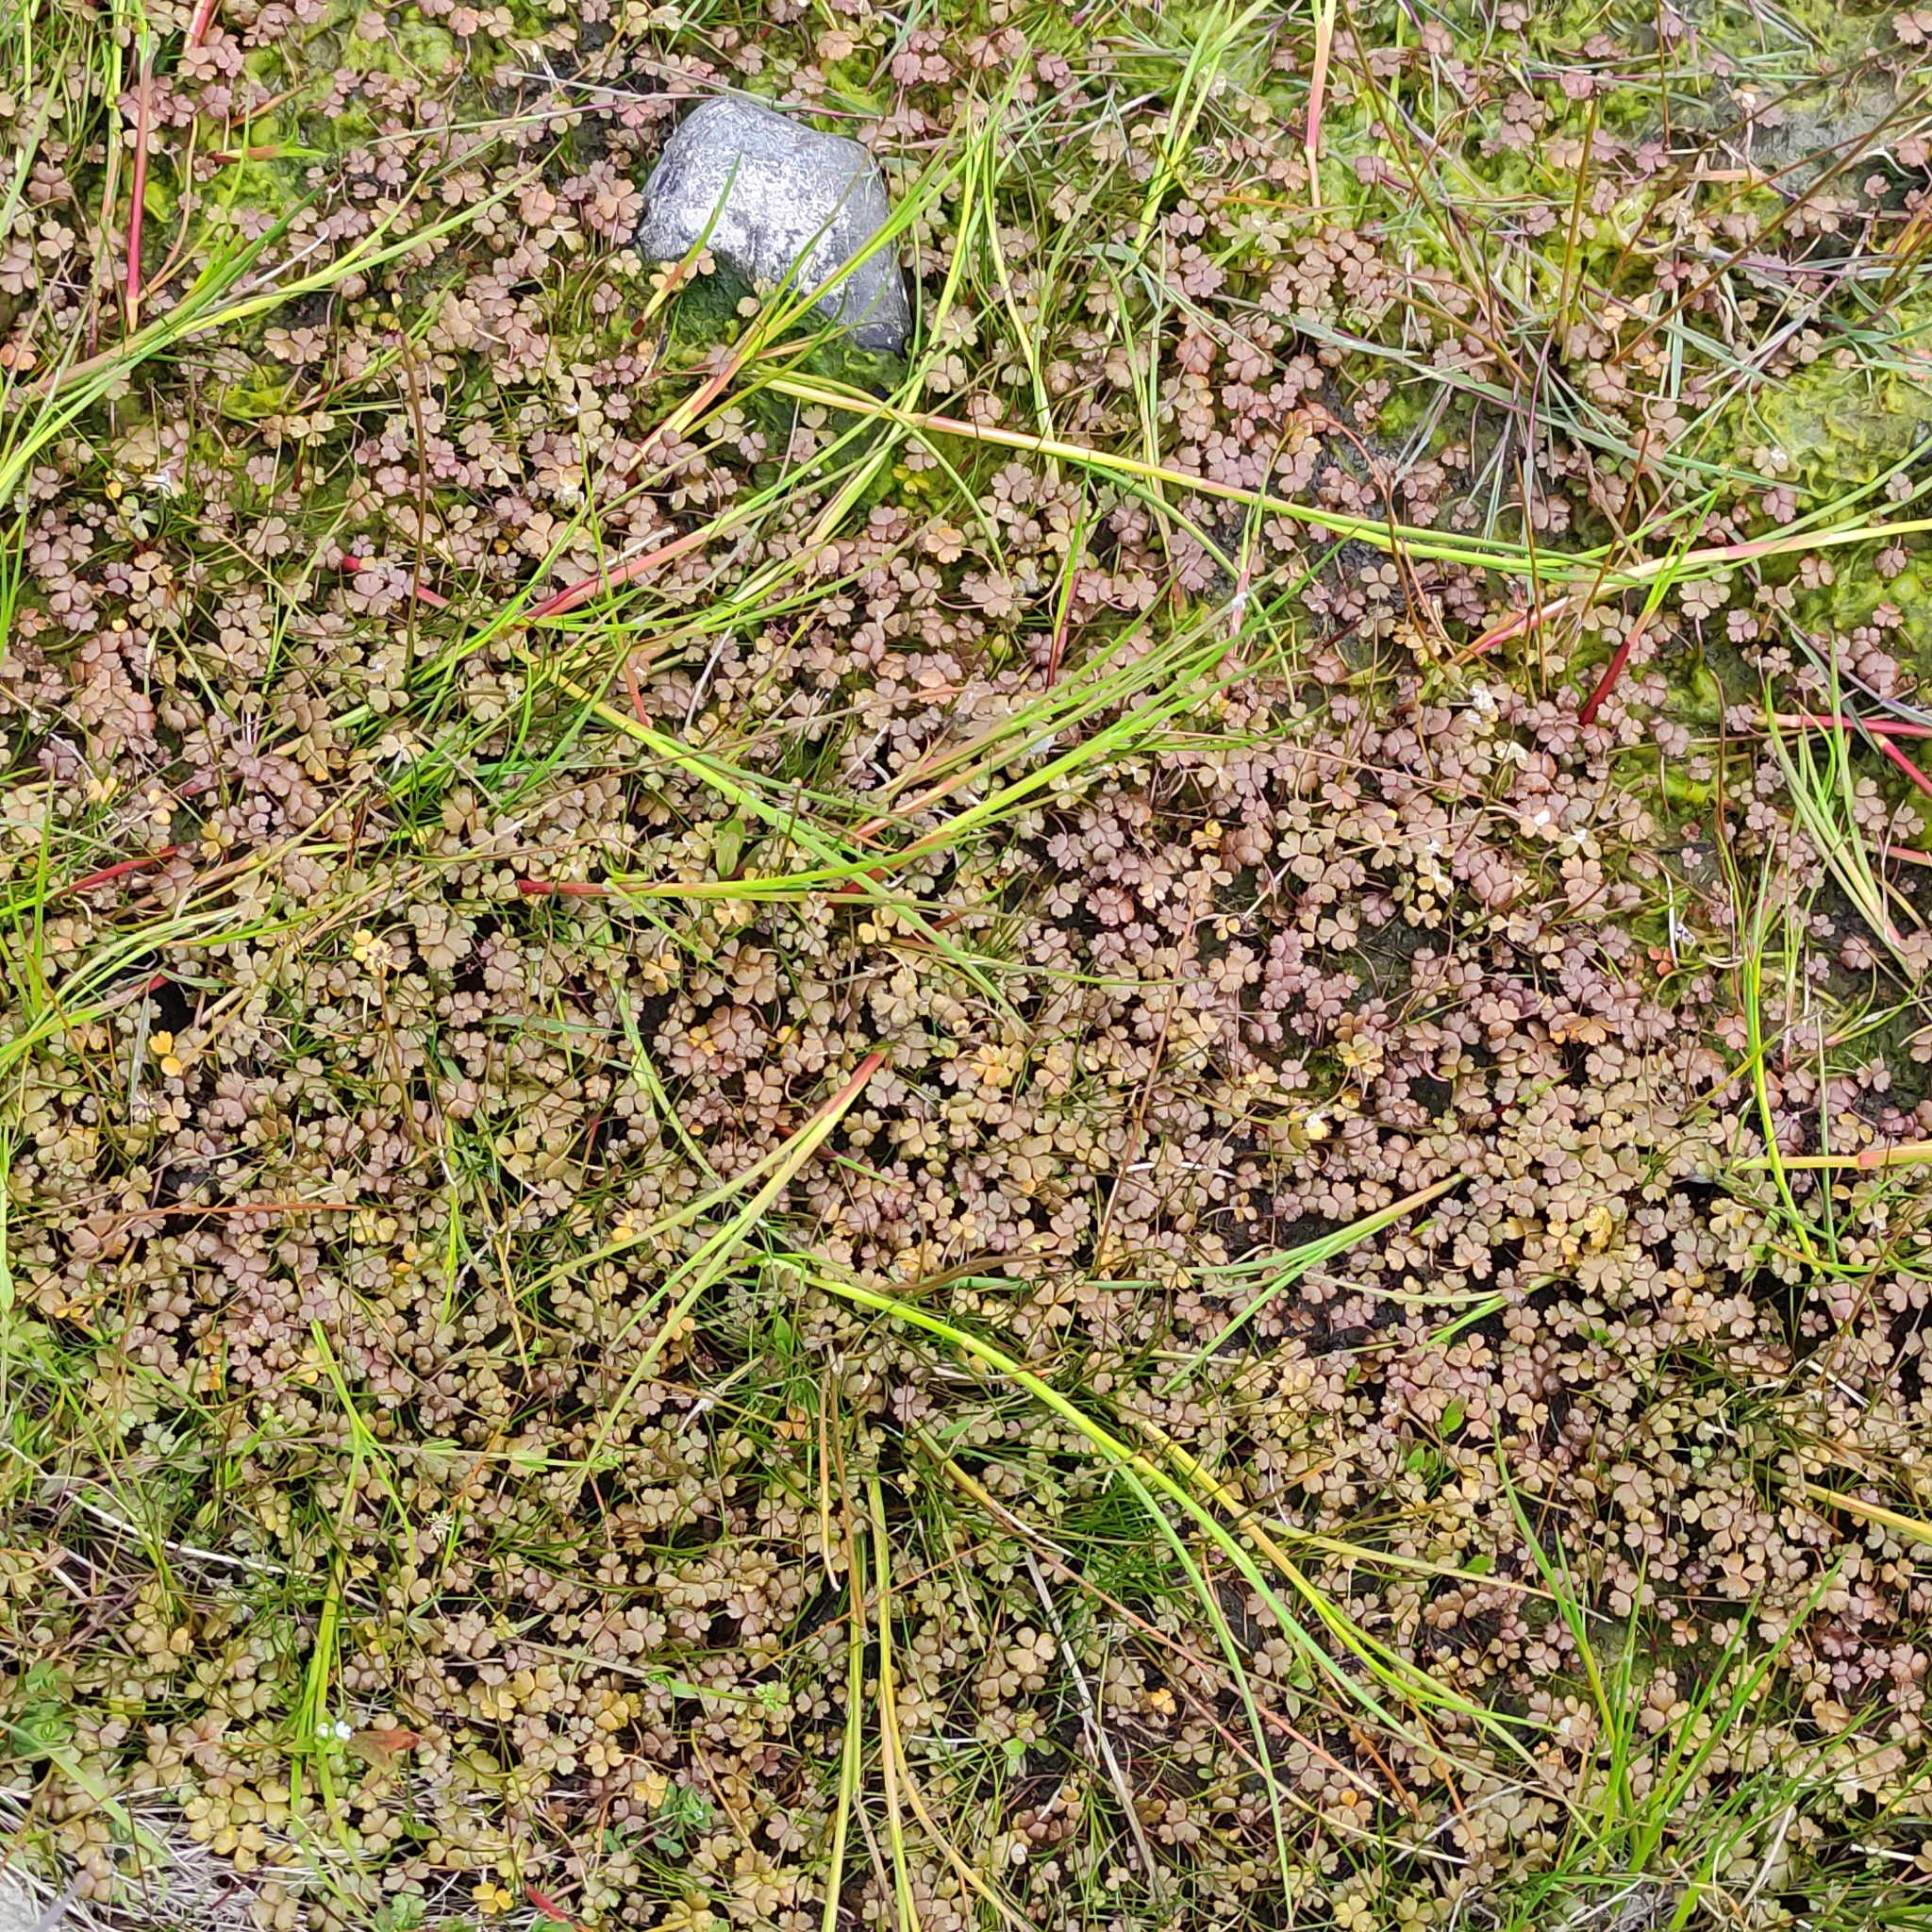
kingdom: Plantae
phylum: Tracheophyta
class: Magnoliopsida
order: Apiales
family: Araliaceae
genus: Hydrocotyle
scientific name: Hydrocotyle sulcata
